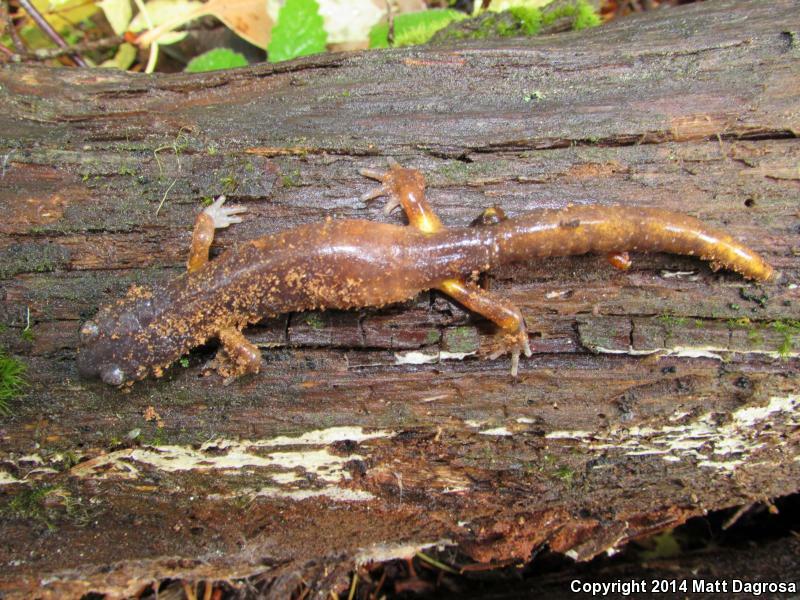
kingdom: Animalia
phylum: Chordata
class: Amphibia
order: Caudata
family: Plethodontidae
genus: Ensatina
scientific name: Ensatina eschscholtzii
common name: Ensatina
